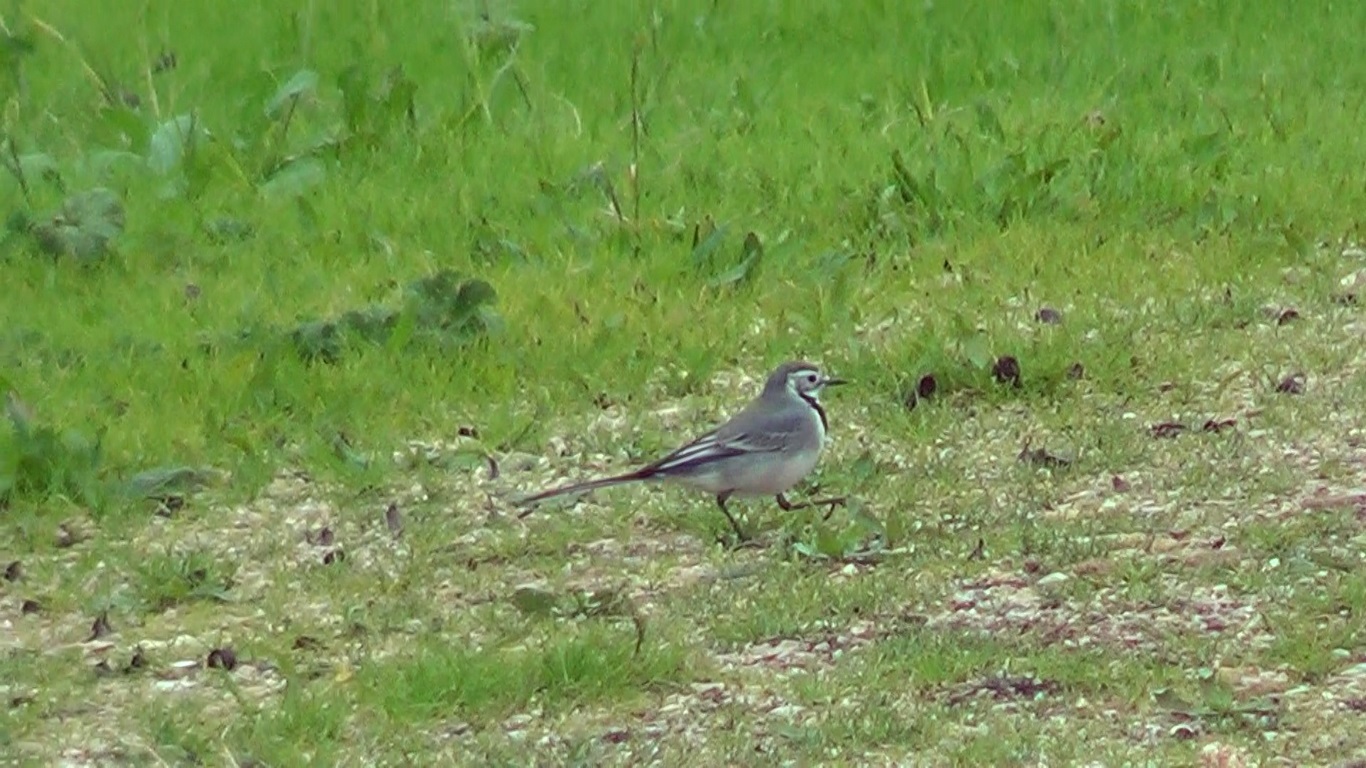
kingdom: Animalia
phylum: Chordata
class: Aves
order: Passeriformes
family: Motacillidae
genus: Motacilla
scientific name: Motacilla alba
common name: White wagtail
